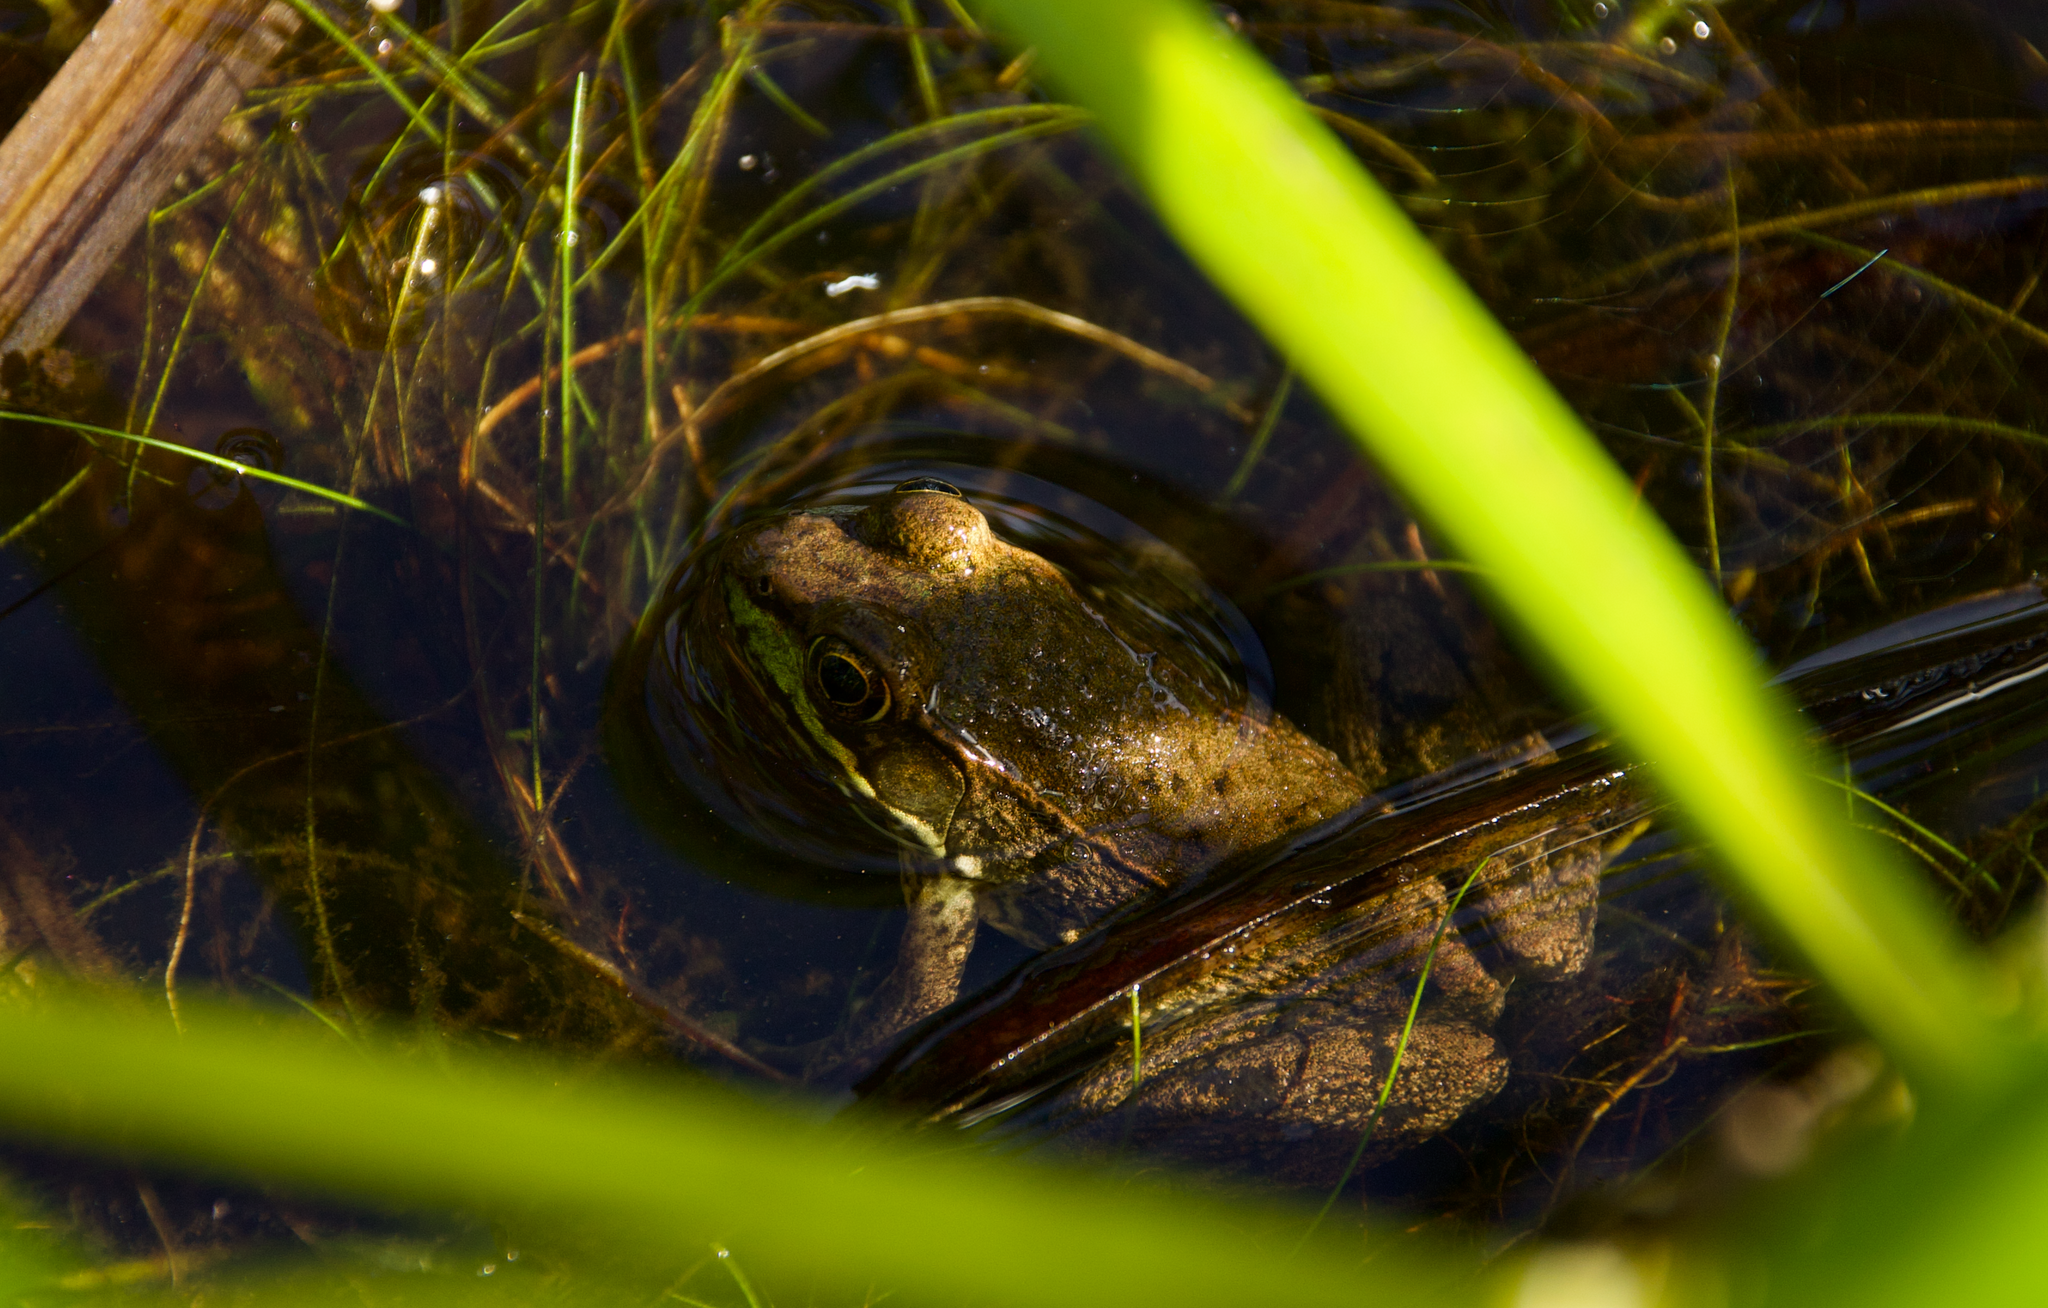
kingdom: Animalia
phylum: Chordata
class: Amphibia
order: Anura
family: Ranidae
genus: Lithobates
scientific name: Lithobates clamitans
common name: Green frog
